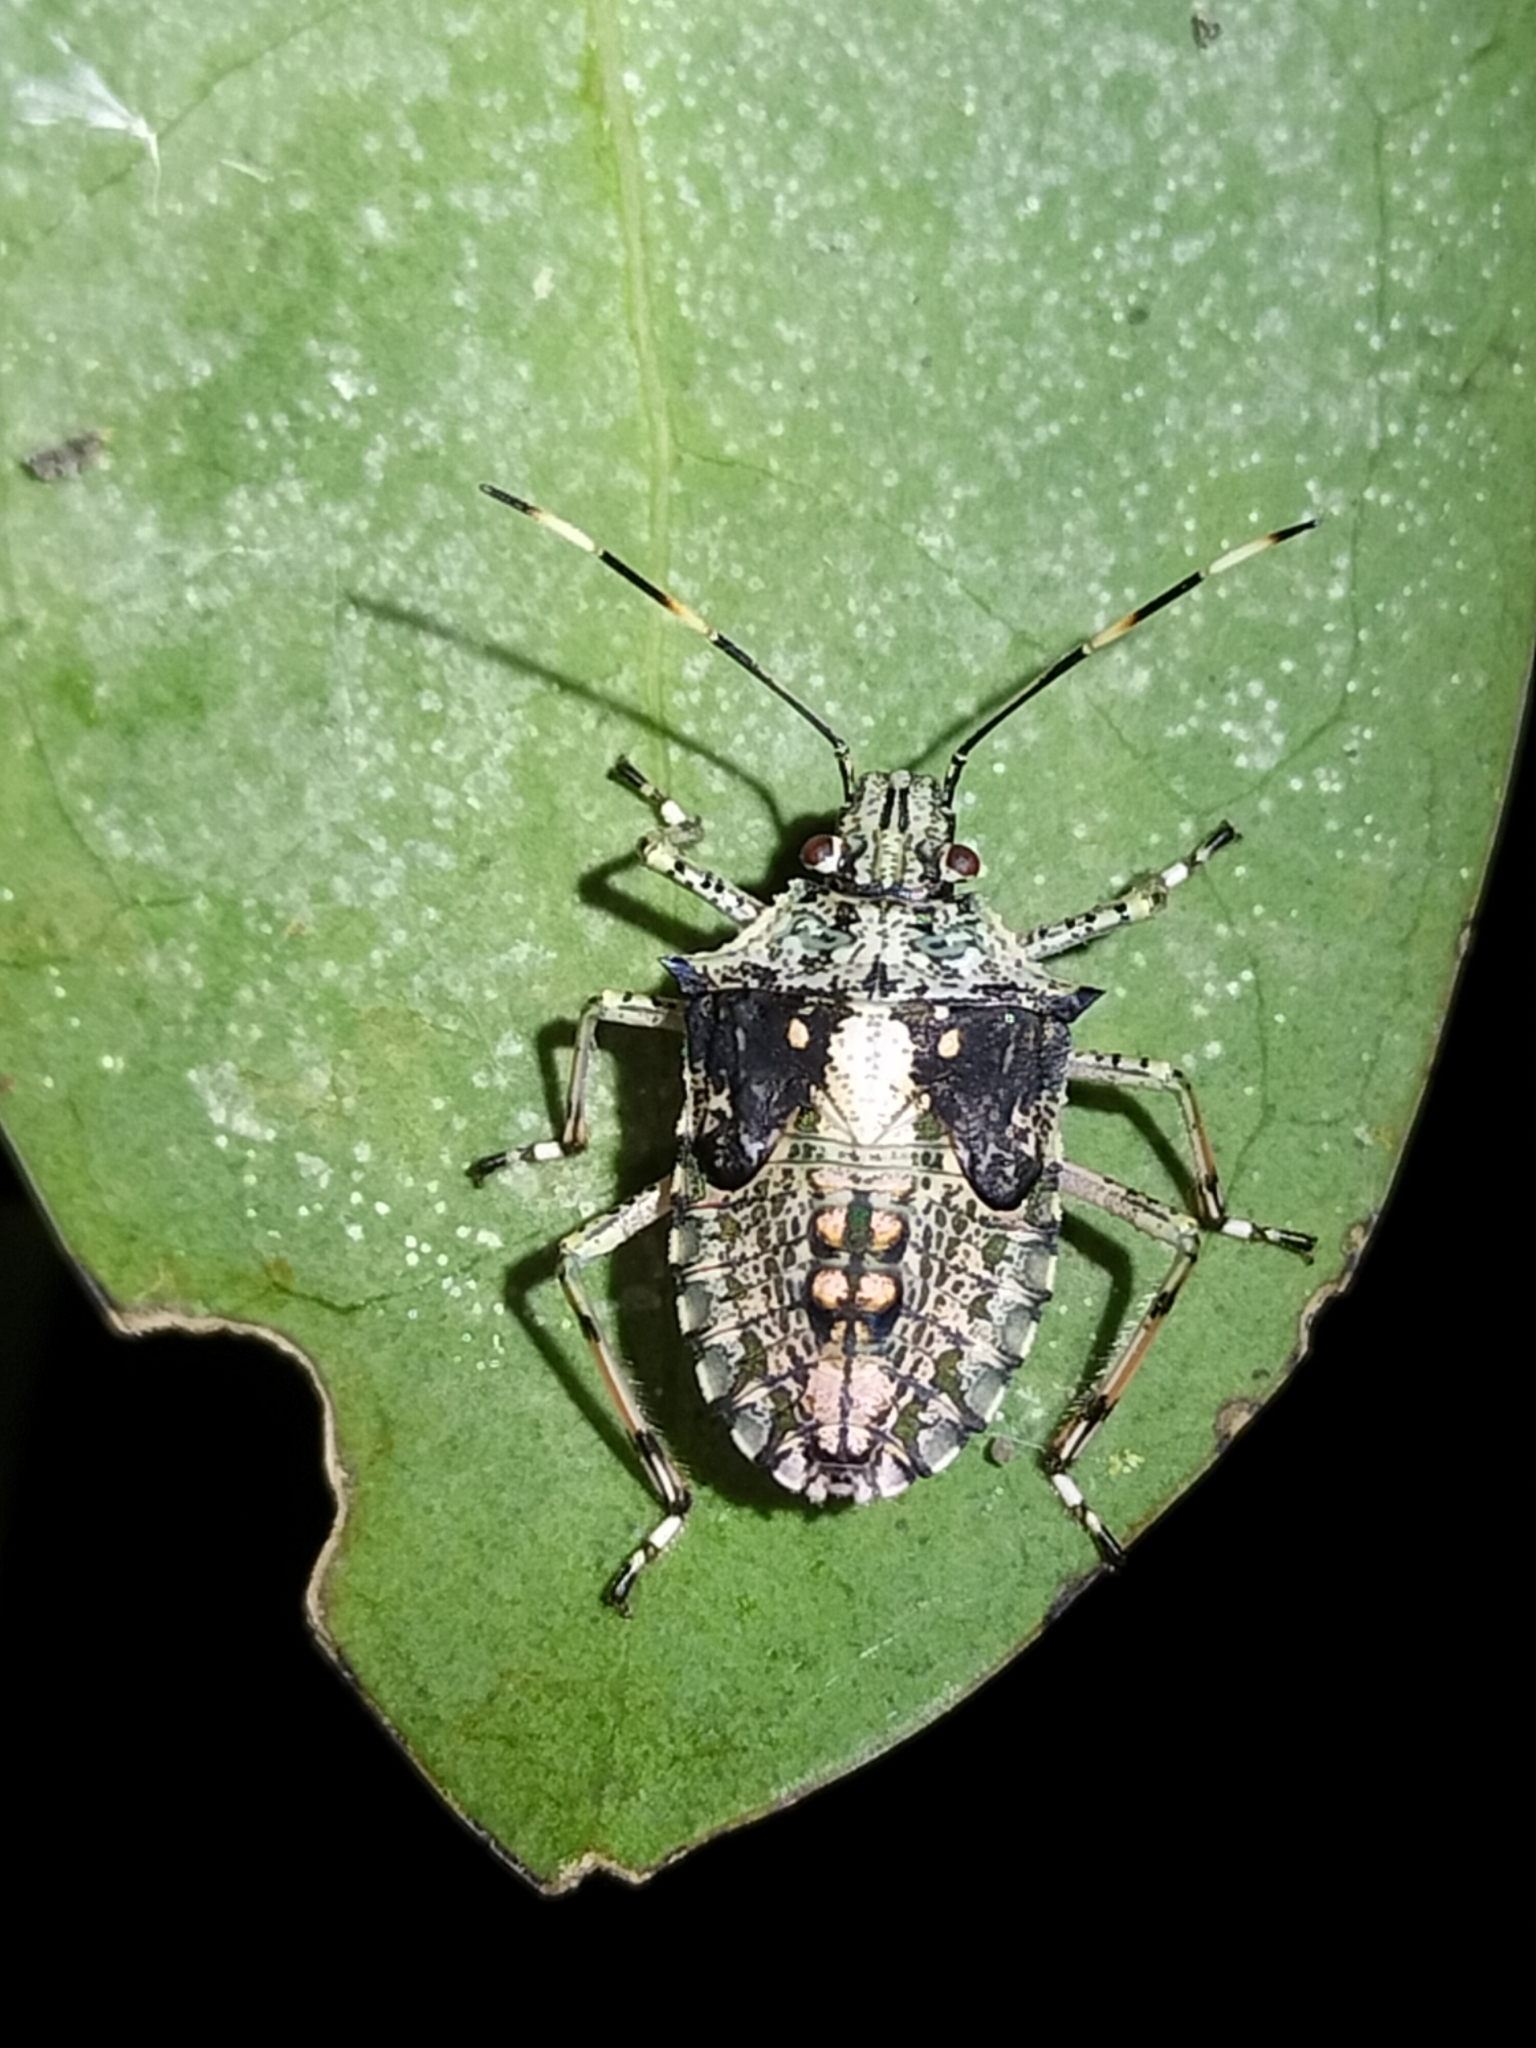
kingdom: Animalia
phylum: Arthropoda
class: Insecta
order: Hemiptera
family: Pentatomidae
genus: Bromocoris
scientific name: Bromocoris
